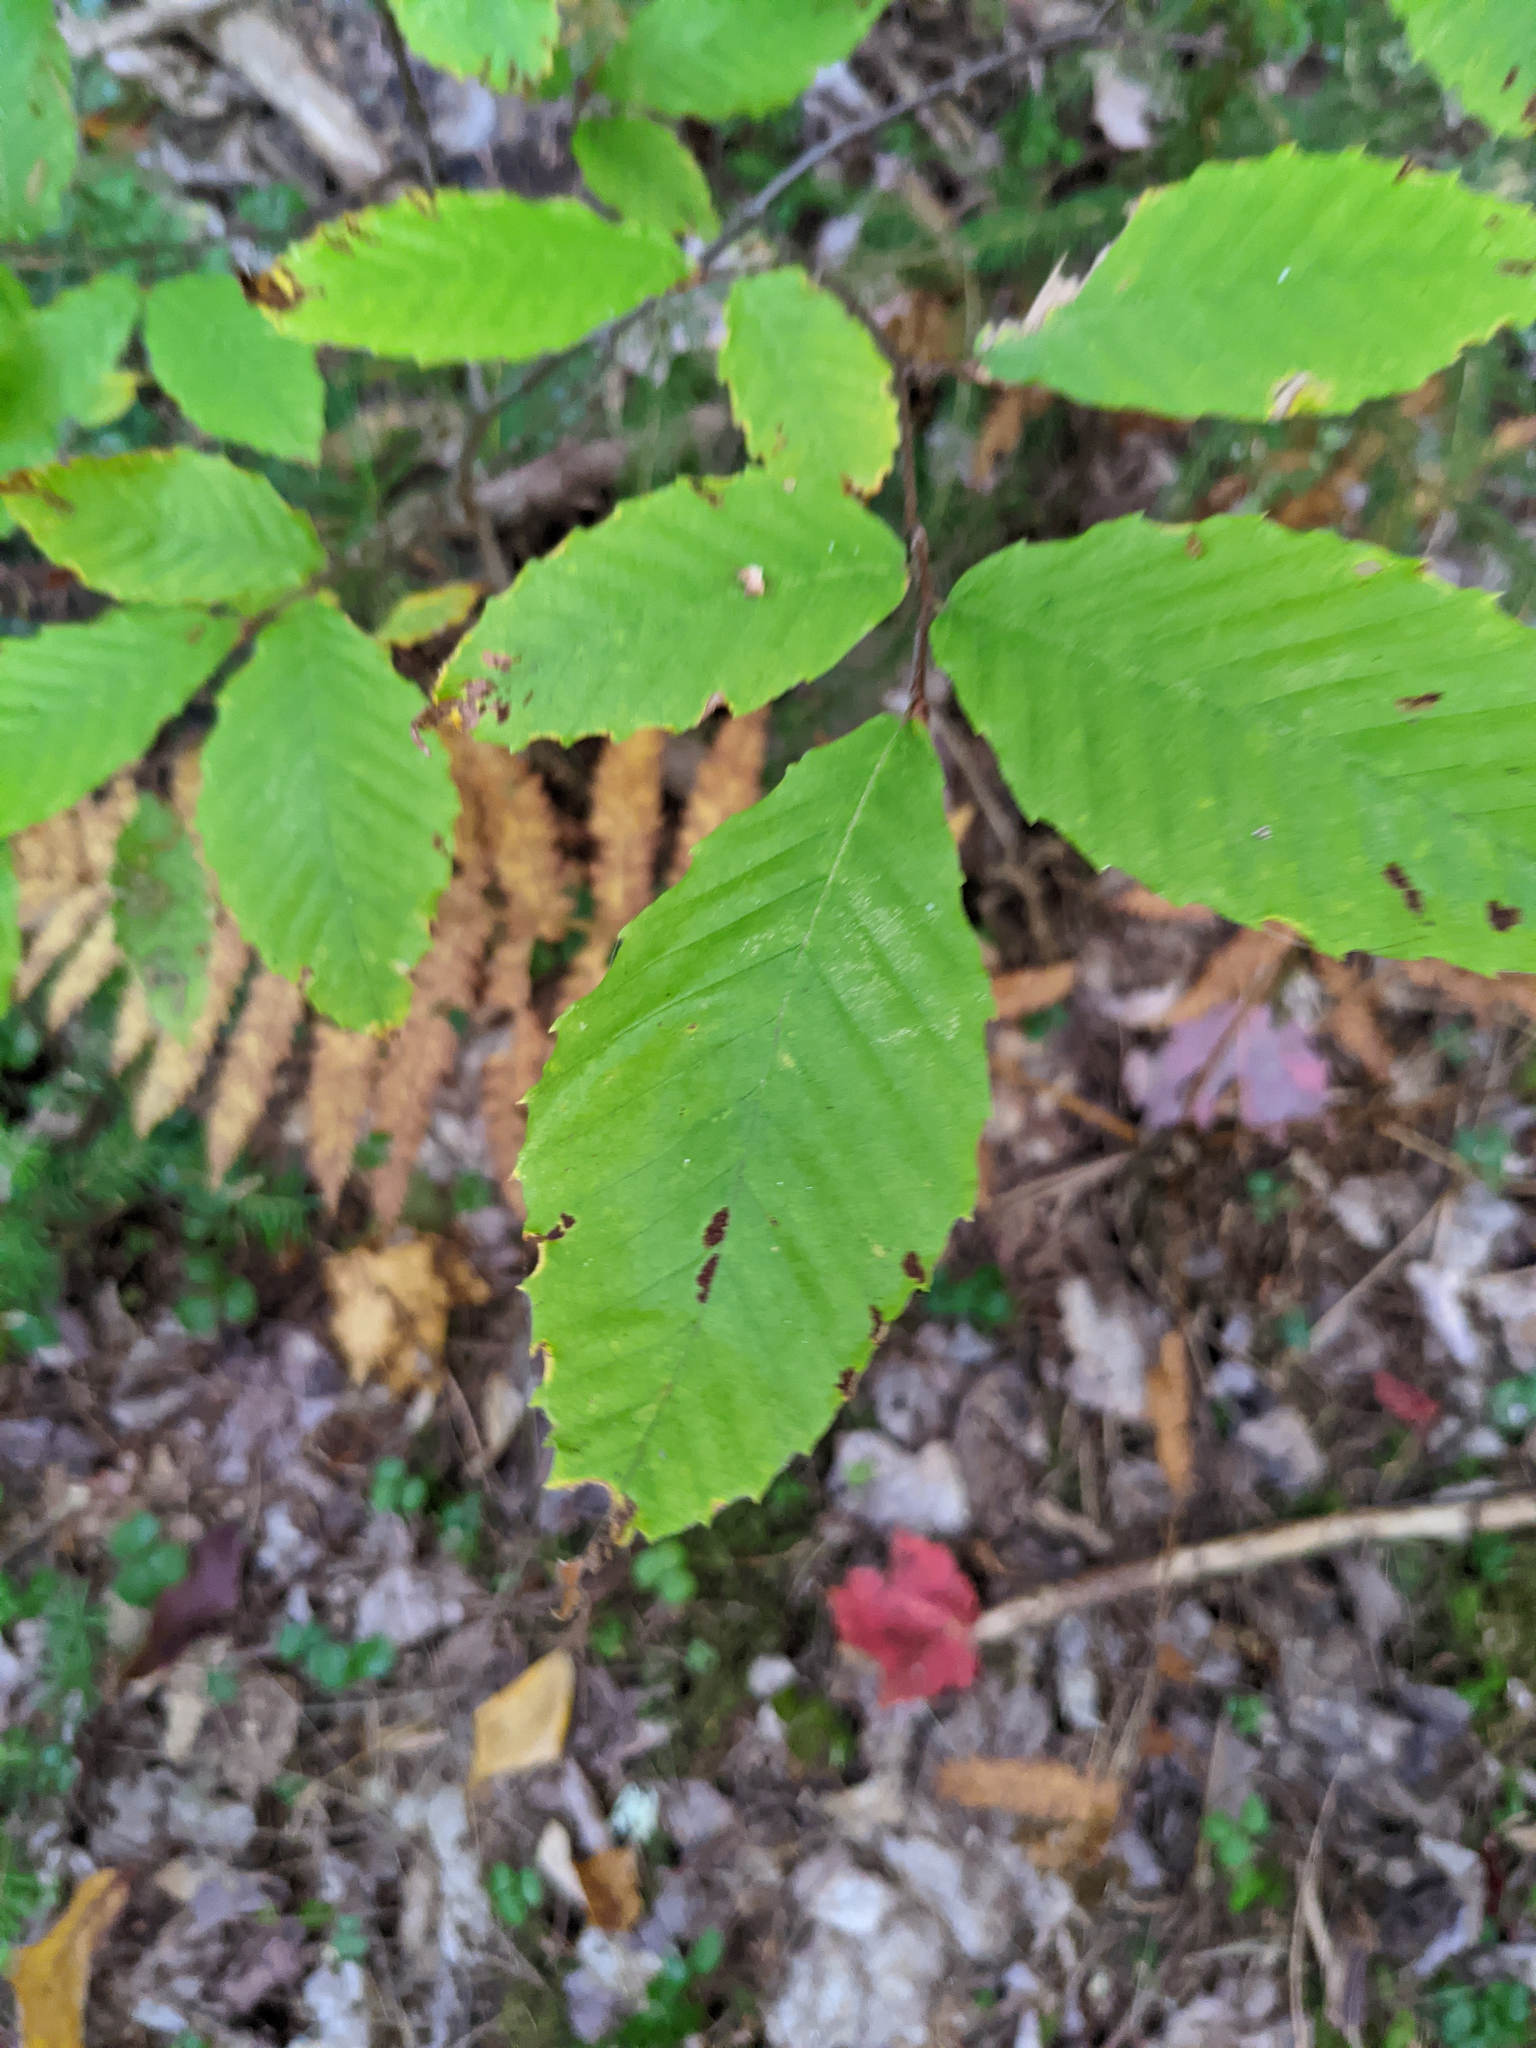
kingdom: Plantae
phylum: Tracheophyta
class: Magnoliopsida
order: Fagales
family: Fagaceae
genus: Fagus
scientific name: Fagus grandifolia
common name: American beech
